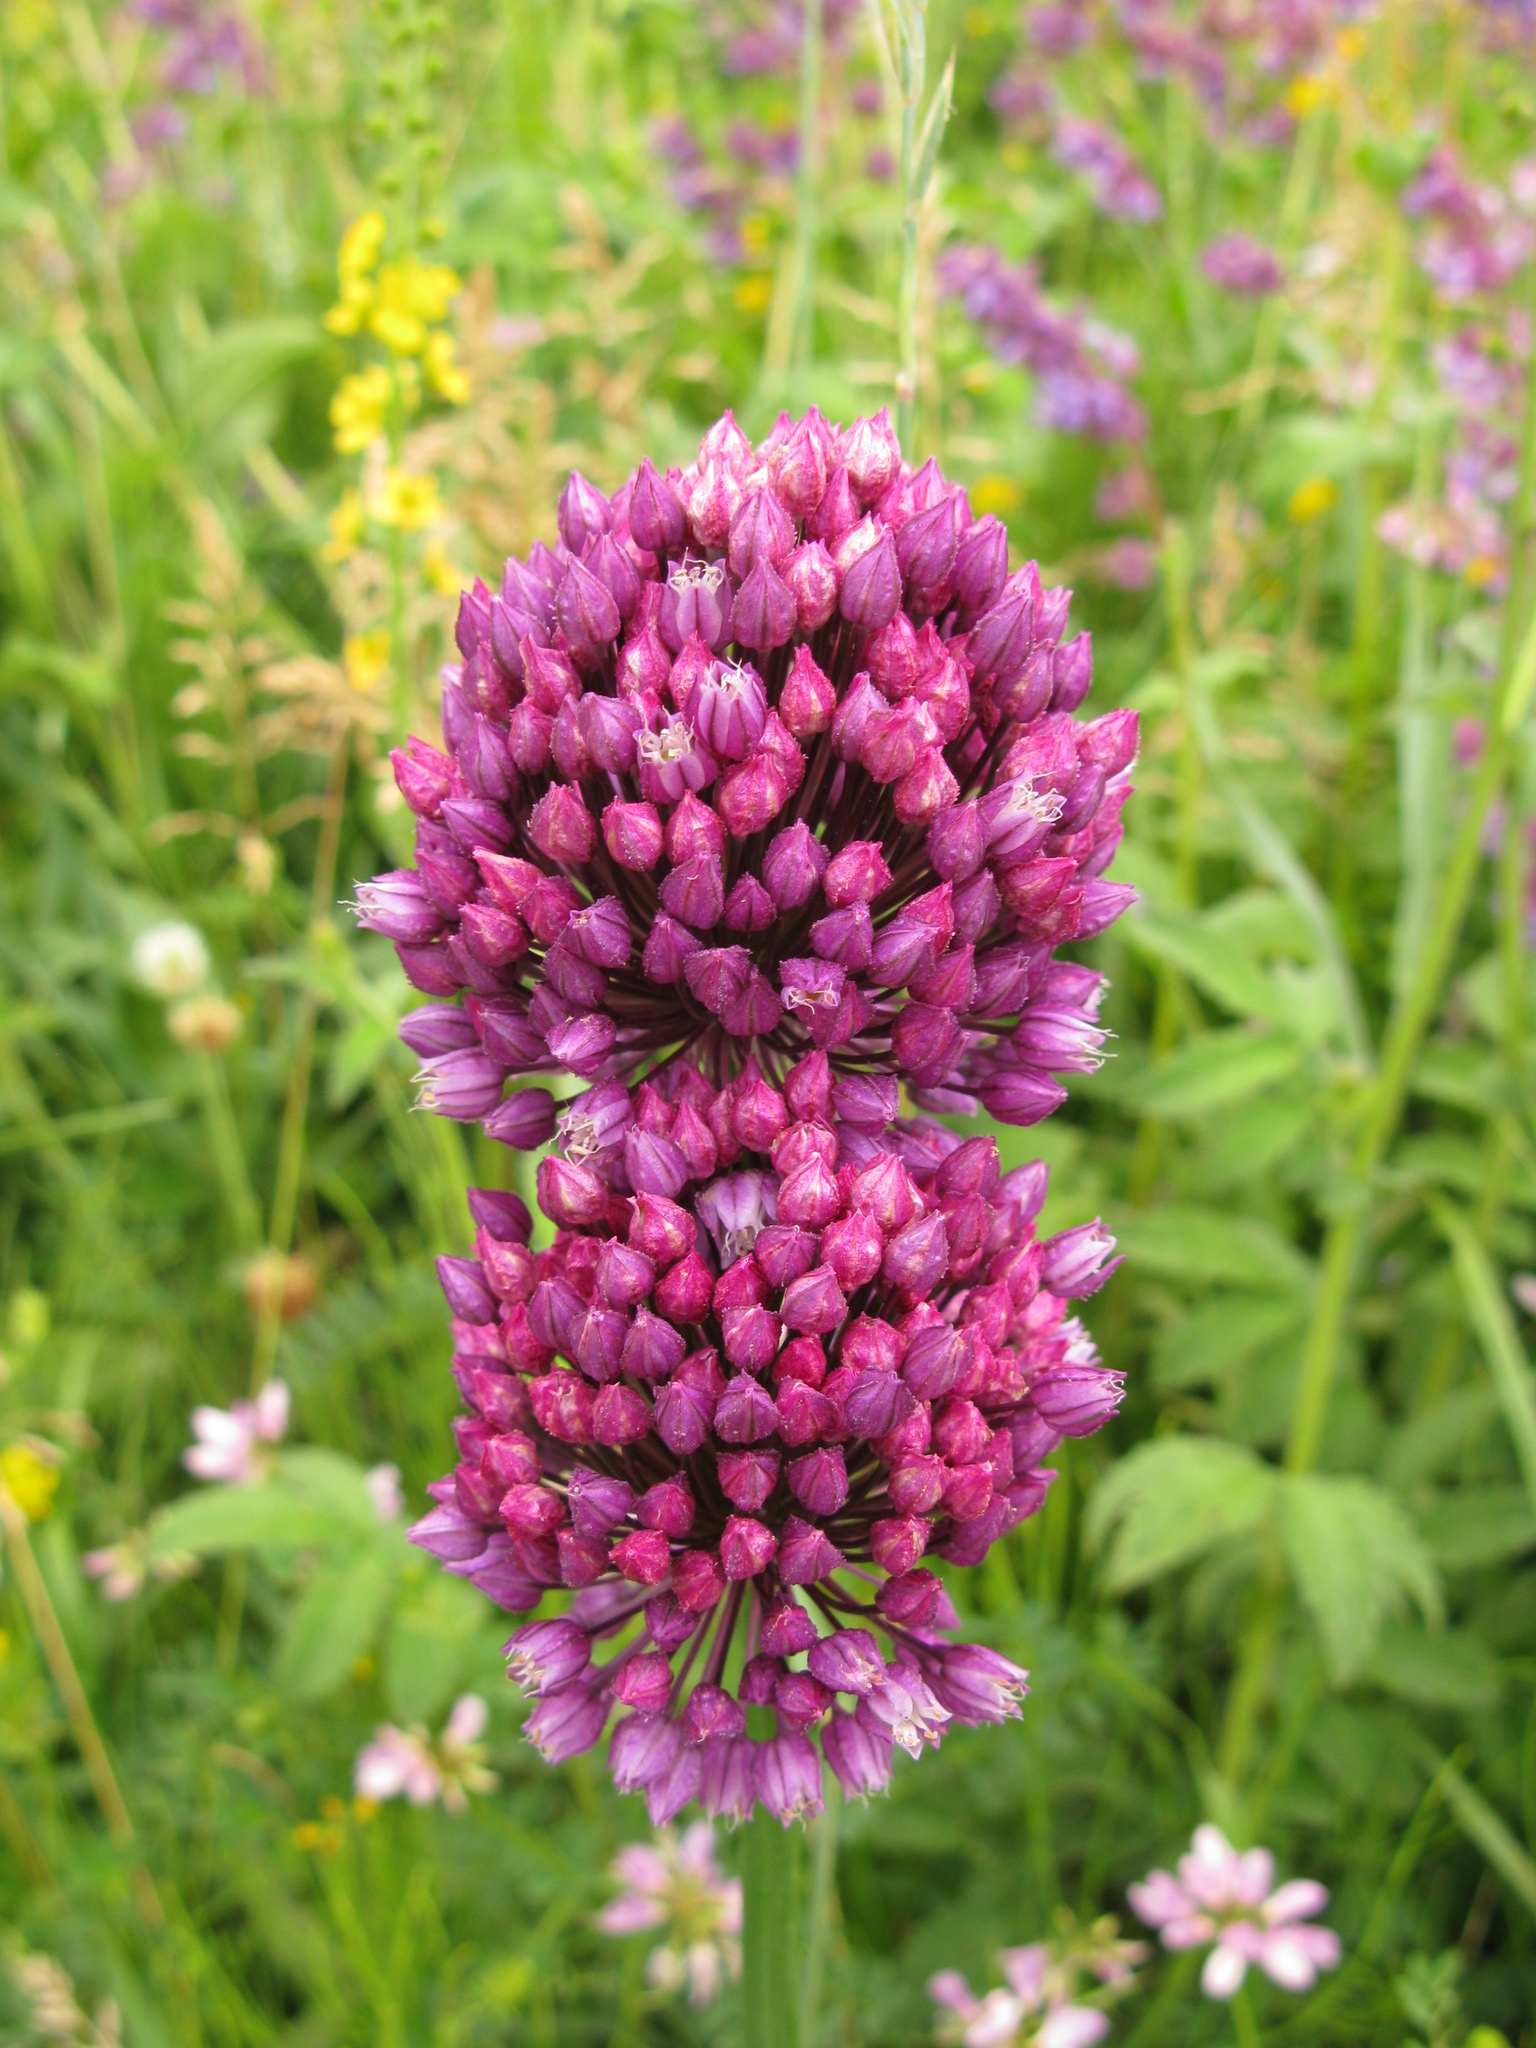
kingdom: Plantae
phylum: Tracheophyta
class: Liliopsida
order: Asparagales
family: Amaryllidaceae
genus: Allium
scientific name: Allium rotundum
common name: Sand leek
